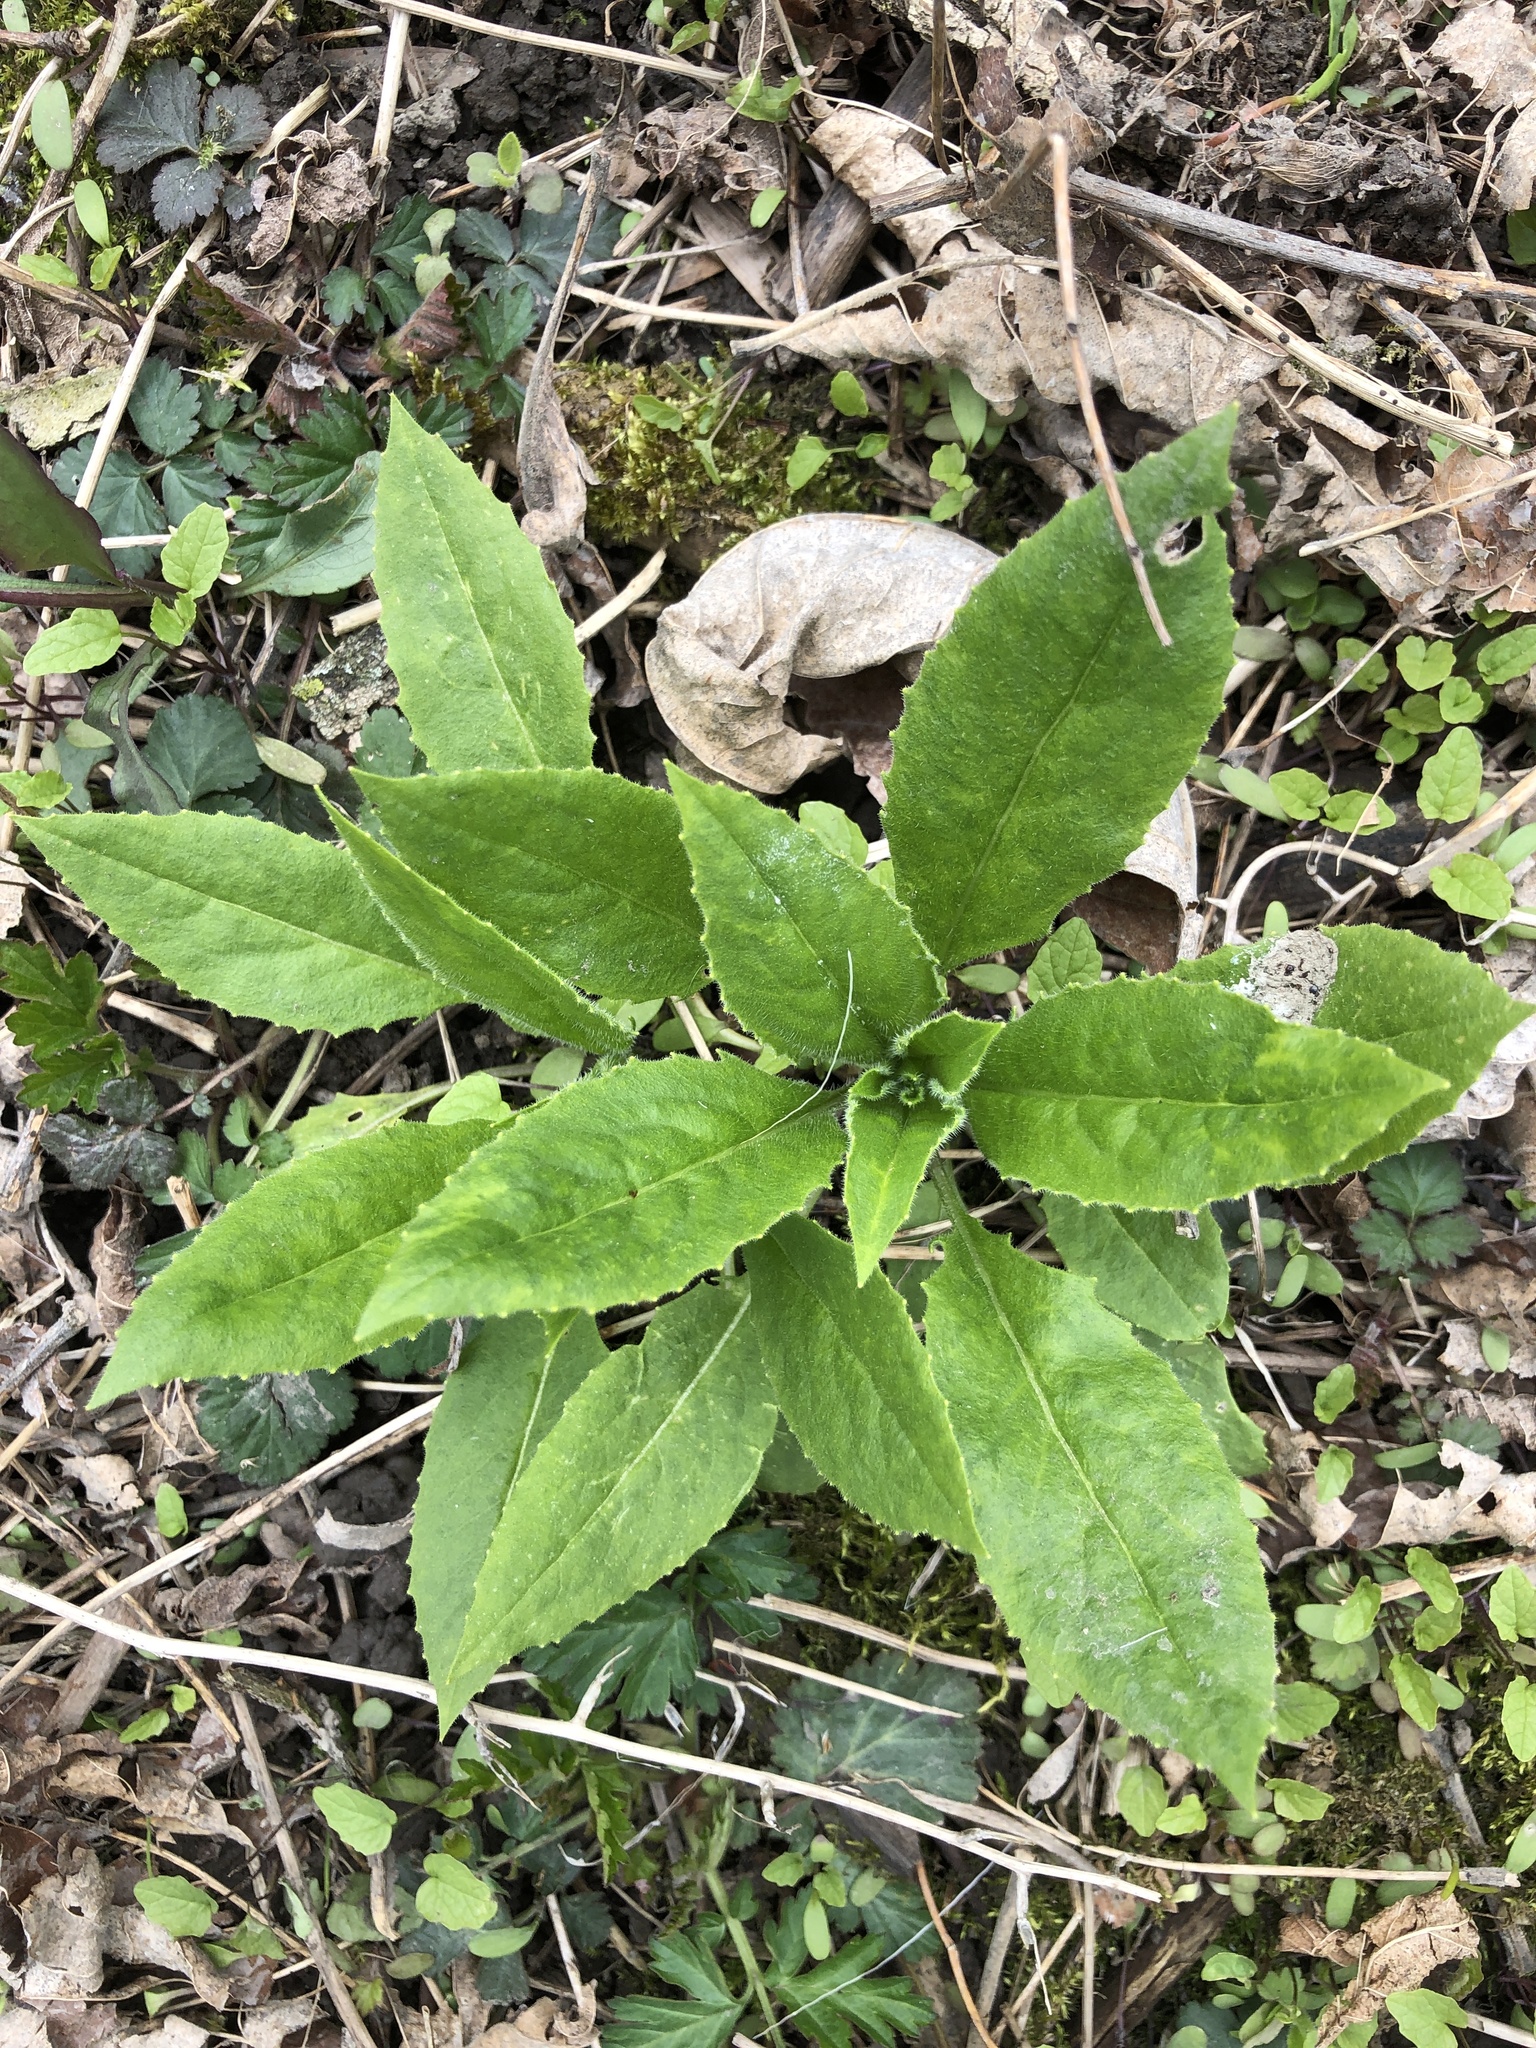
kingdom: Plantae
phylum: Tracheophyta
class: Magnoliopsida
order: Brassicales
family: Brassicaceae
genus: Hesperis
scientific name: Hesperis matronalis
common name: Dame's-violet
